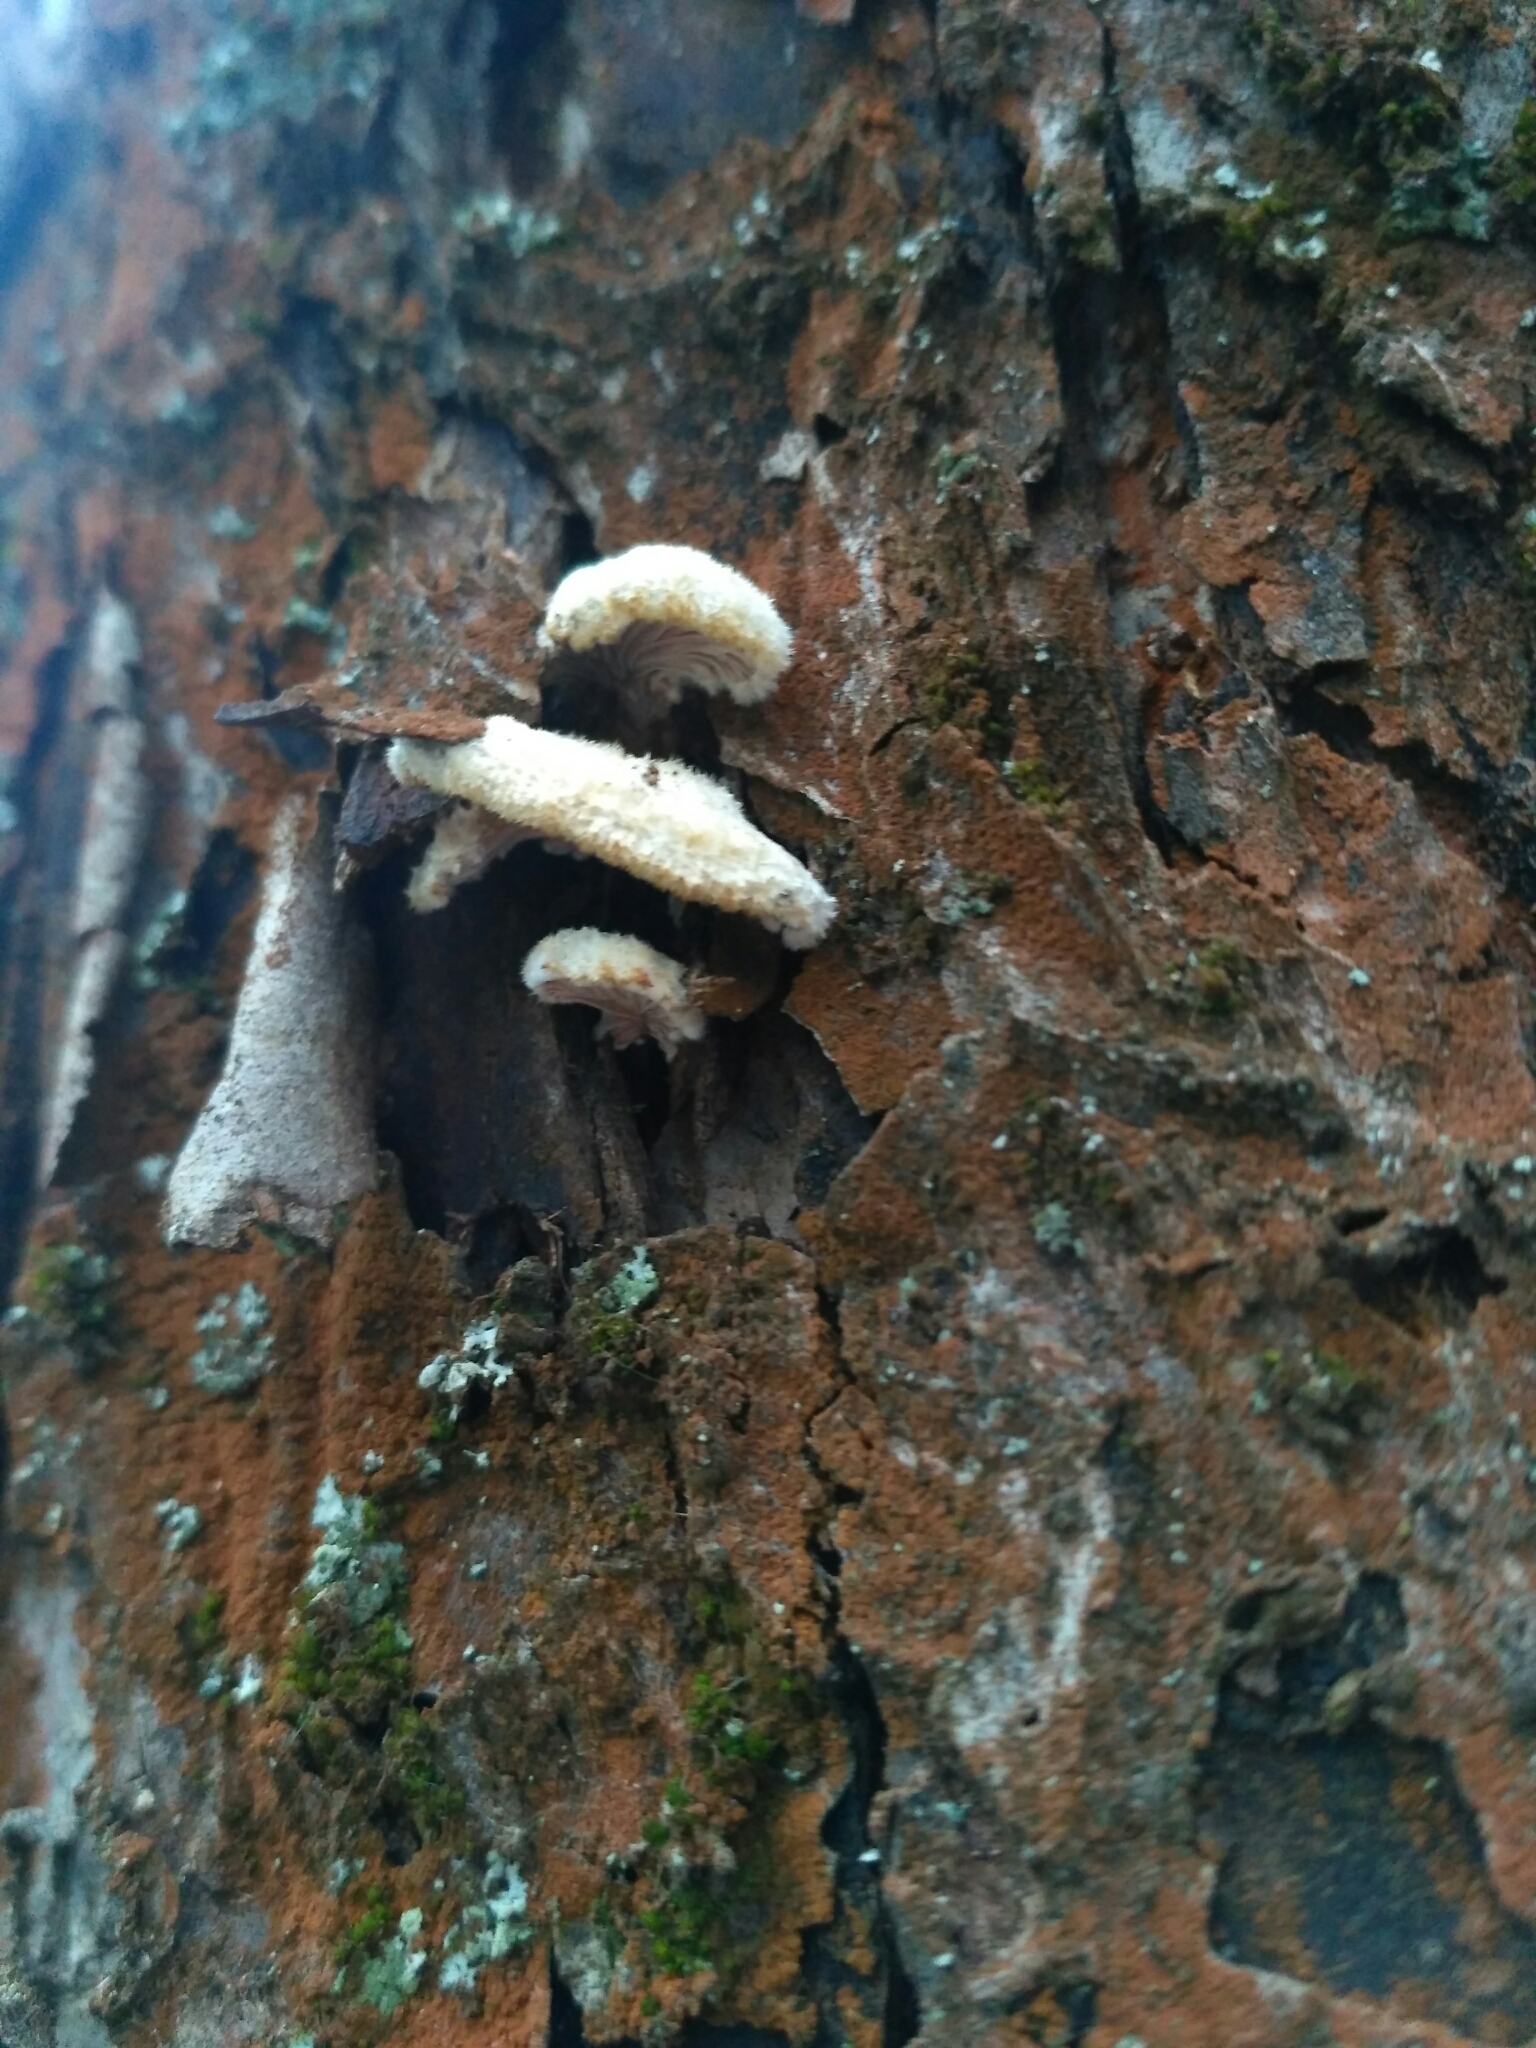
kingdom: Fungi
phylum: Basidiomycota
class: Agaricomycetes
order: Agaricales
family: Schizophyllaceae
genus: Schizophyllum
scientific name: Schizophyllum commune
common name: Common porecrust
